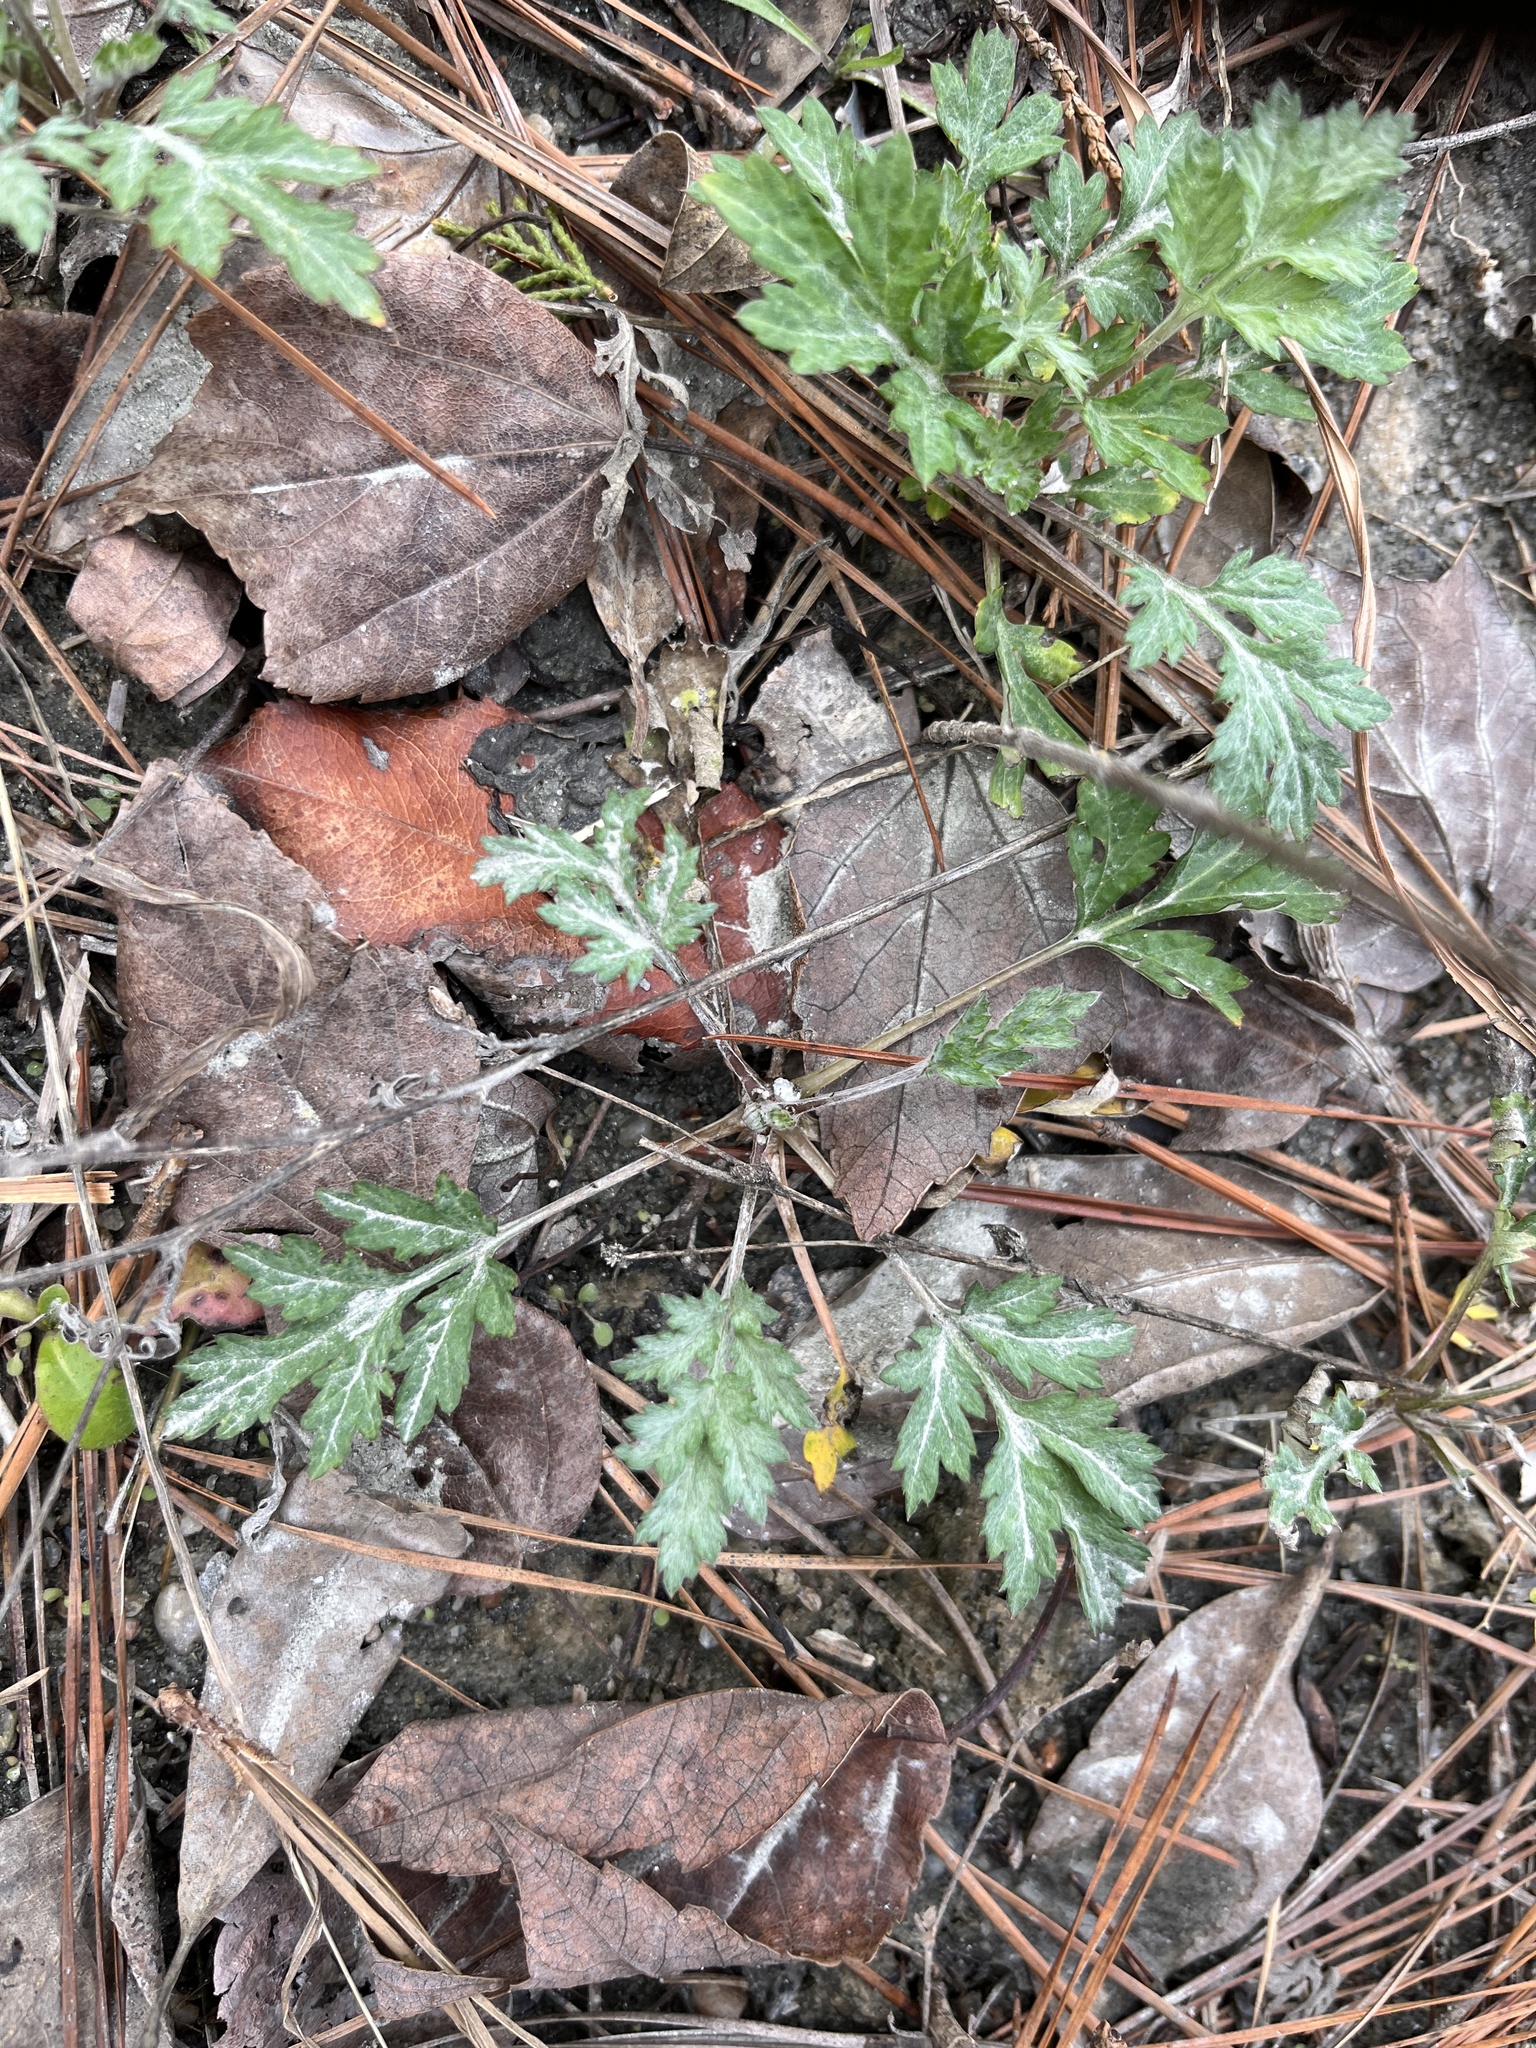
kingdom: Plantae
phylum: Tracheophyta
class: Magnoliopsida
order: Asterales
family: Asteraceae
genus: Artemisia
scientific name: Artemisia vulgaris
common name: Mugwort
